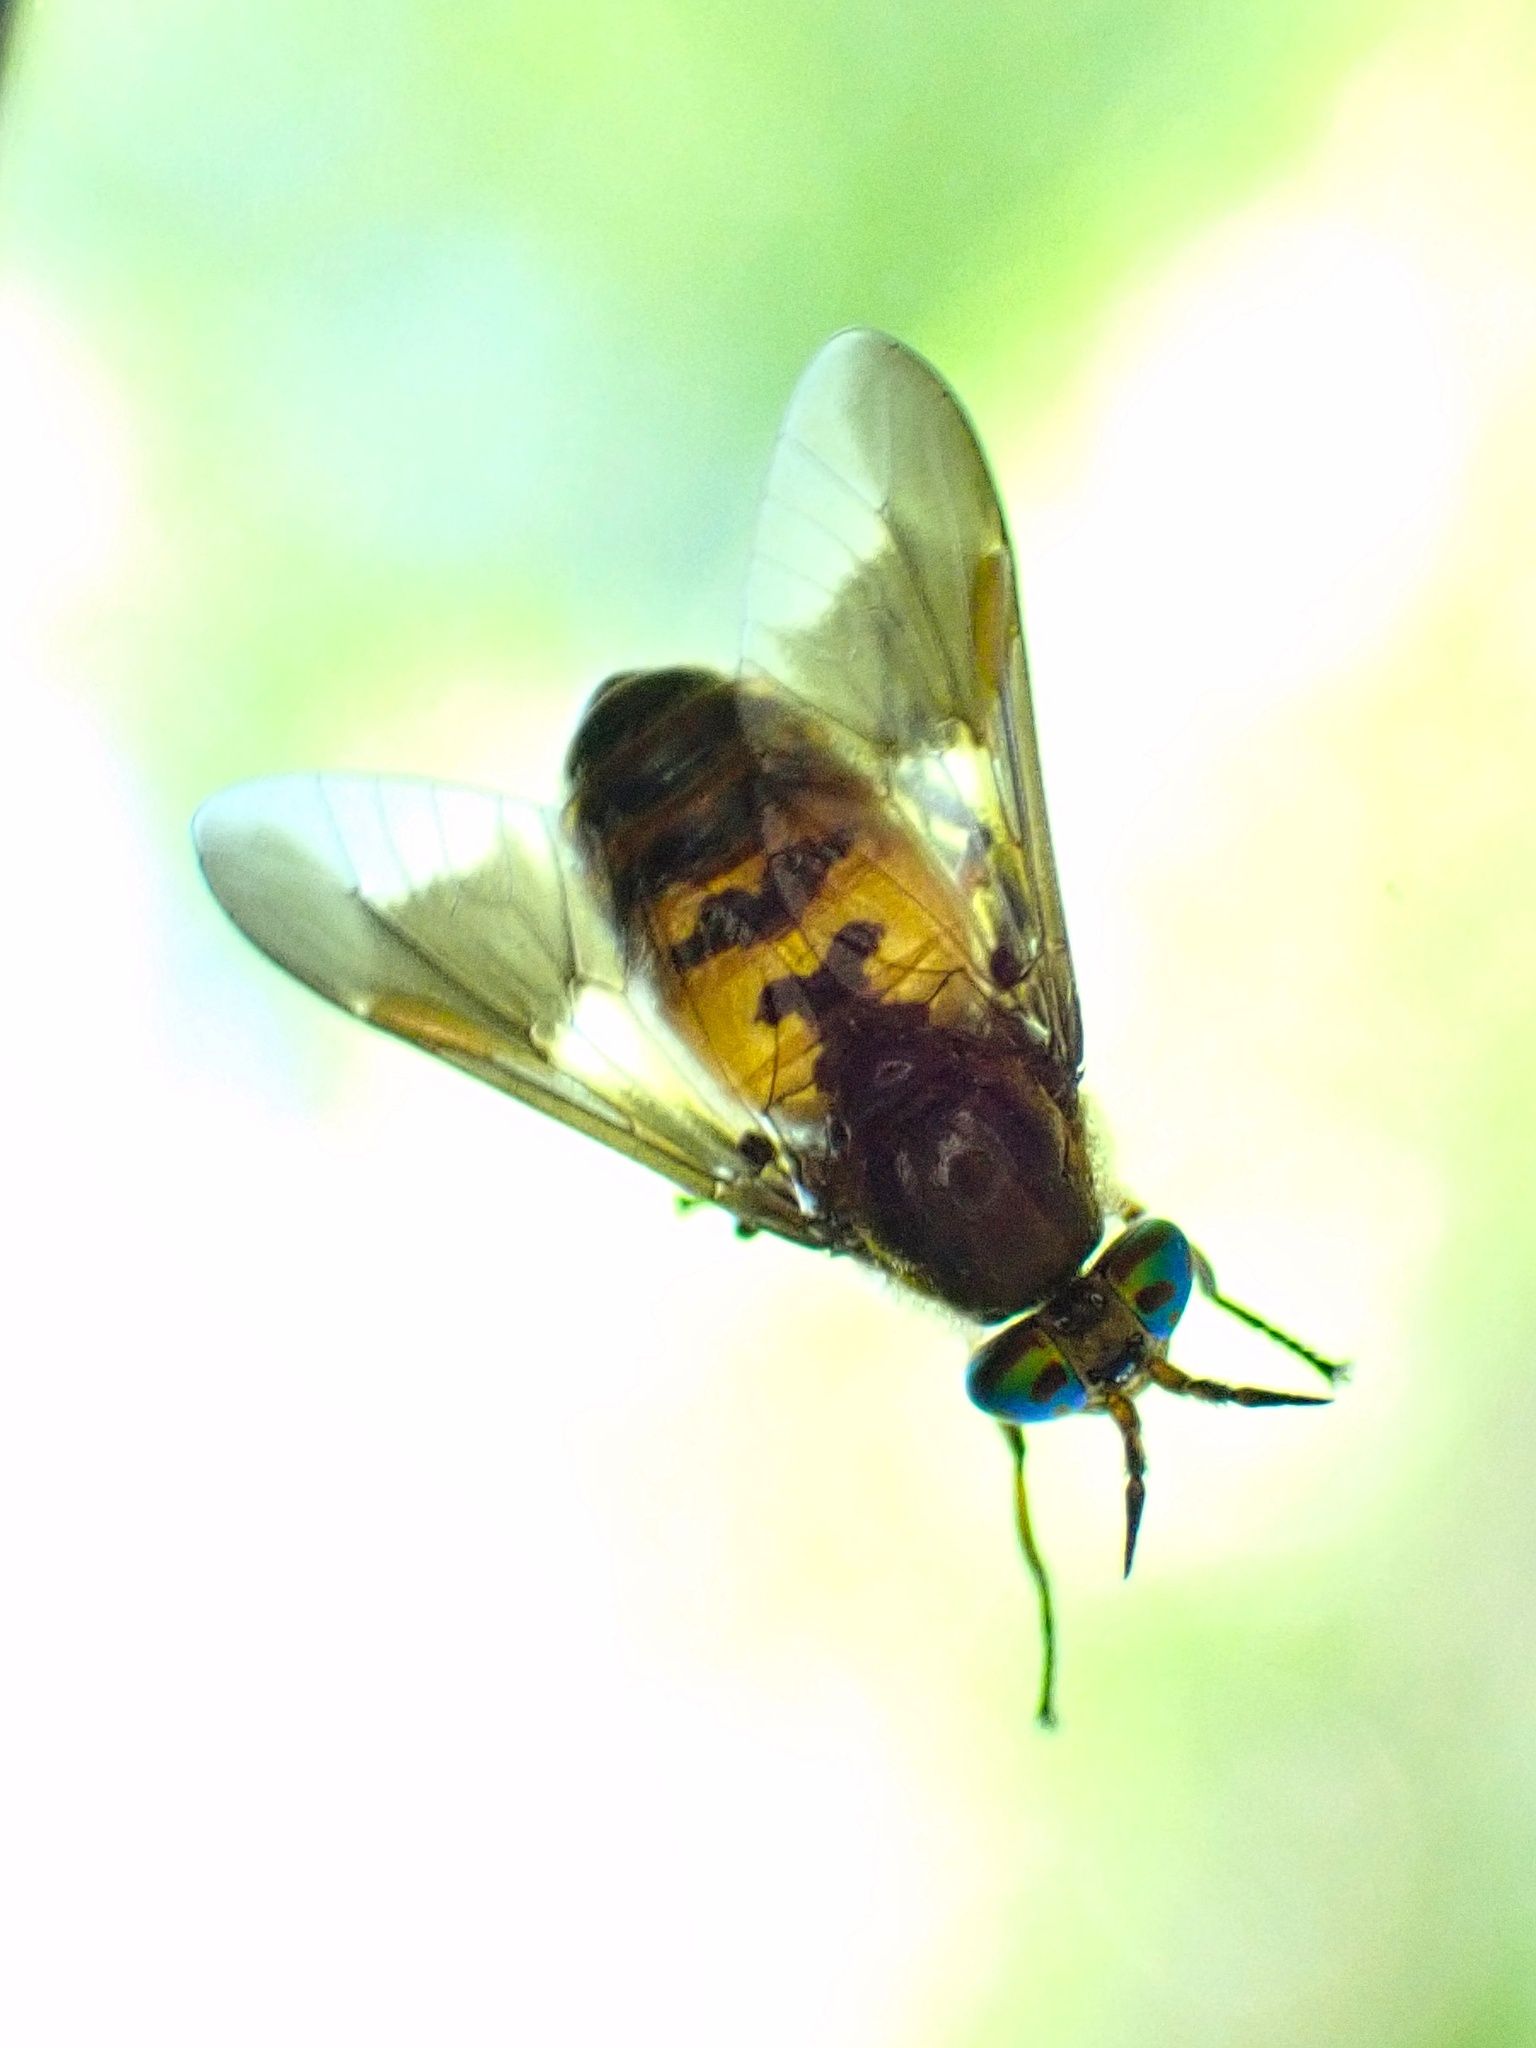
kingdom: Animalia
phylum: Arthropoda
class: Insecta
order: Diptera
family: Tabanidae
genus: Chrysops
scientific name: Chrysops frigidus
